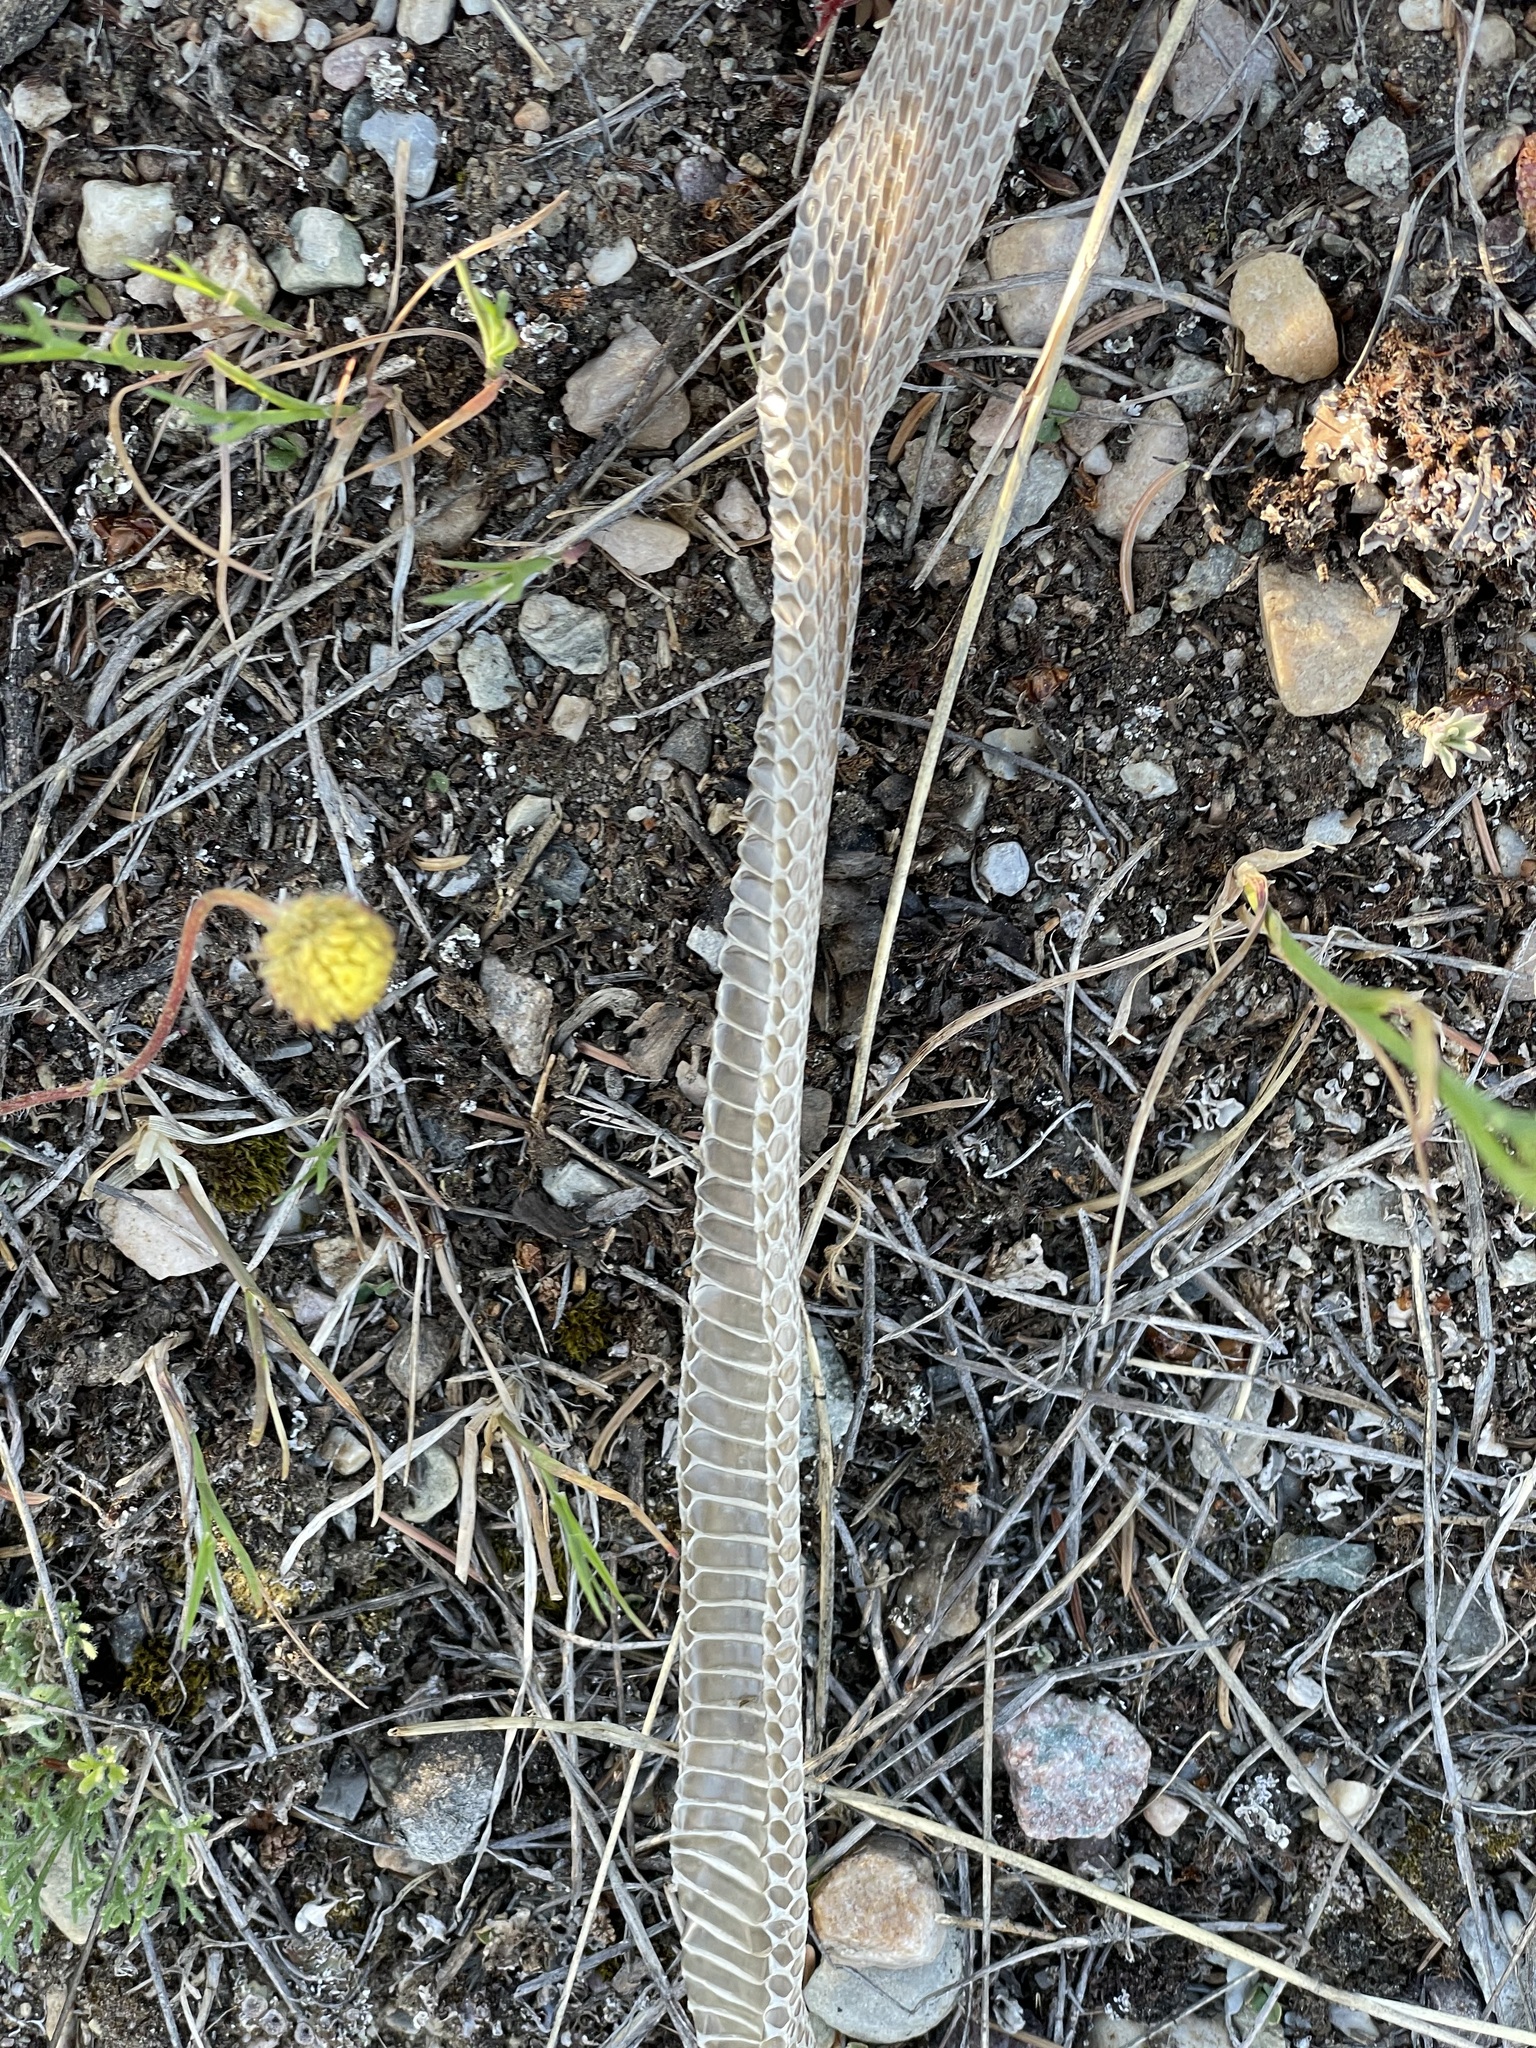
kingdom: Animalia
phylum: Chordata
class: Squamata
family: Colubridae
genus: Thamnophis
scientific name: Thamnophis elegans
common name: Western terrestrial garter snake
